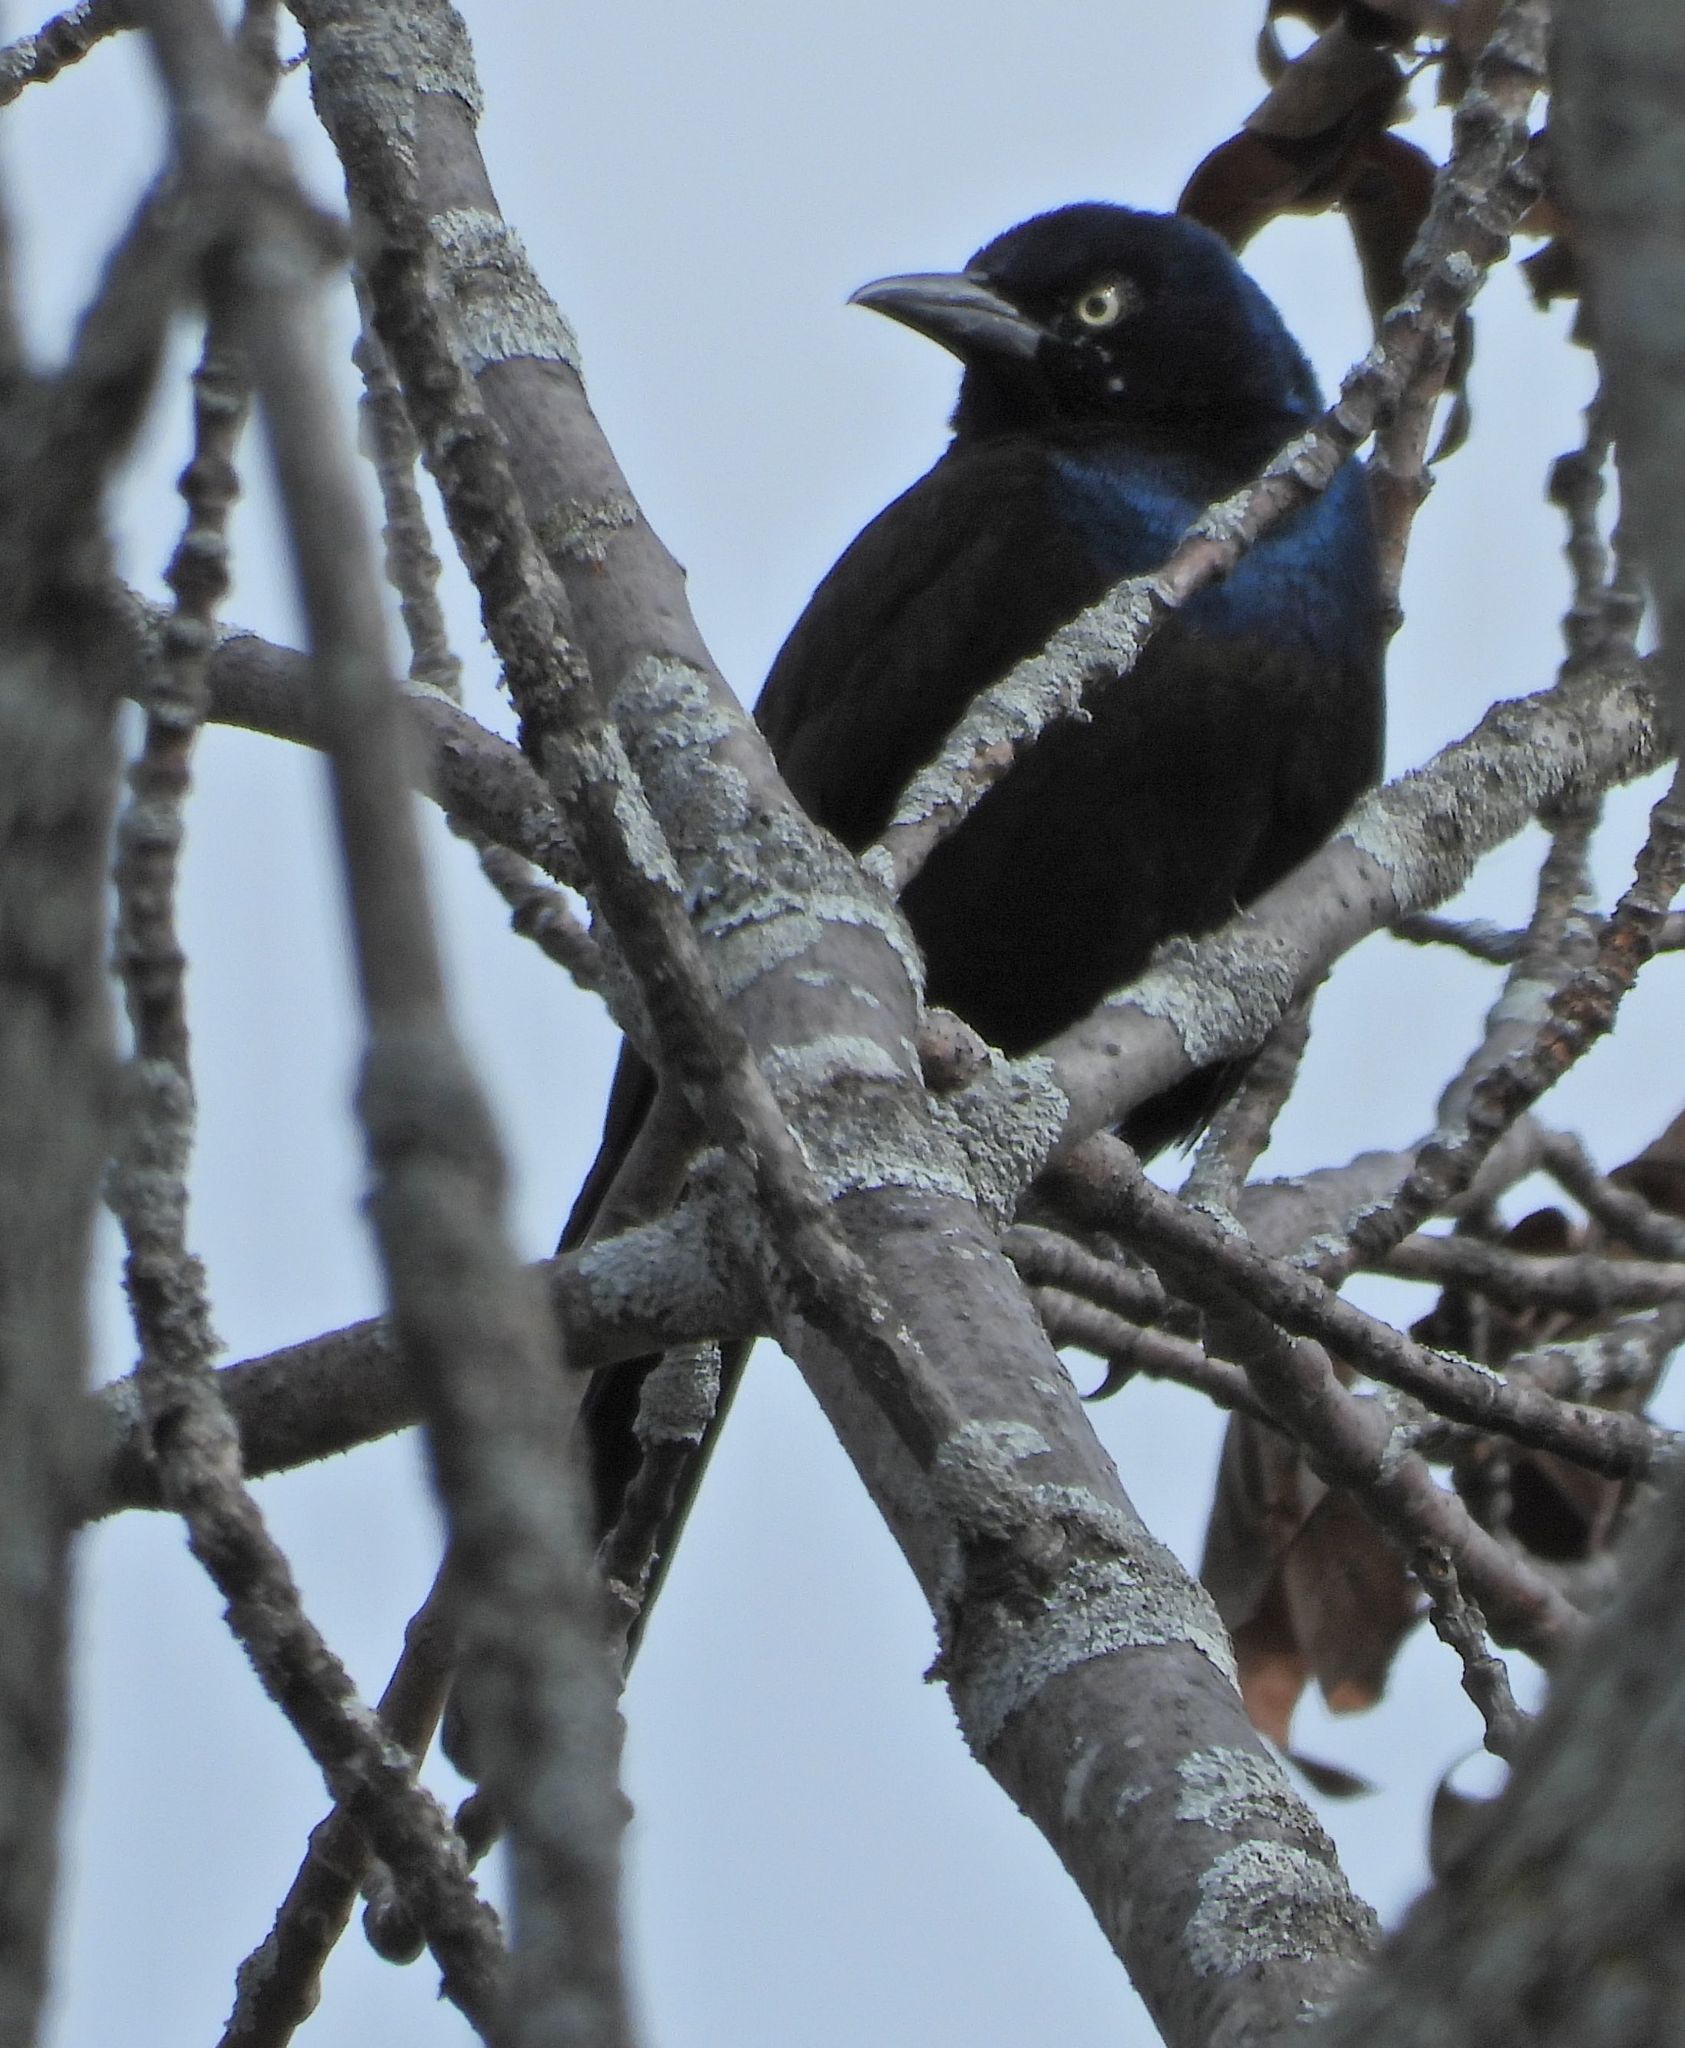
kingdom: Animalia
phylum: Chordata
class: Aves
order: Passeriformes
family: Icteridae
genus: Quiscalus
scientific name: Quiscalus quiscula
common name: Common grackle
